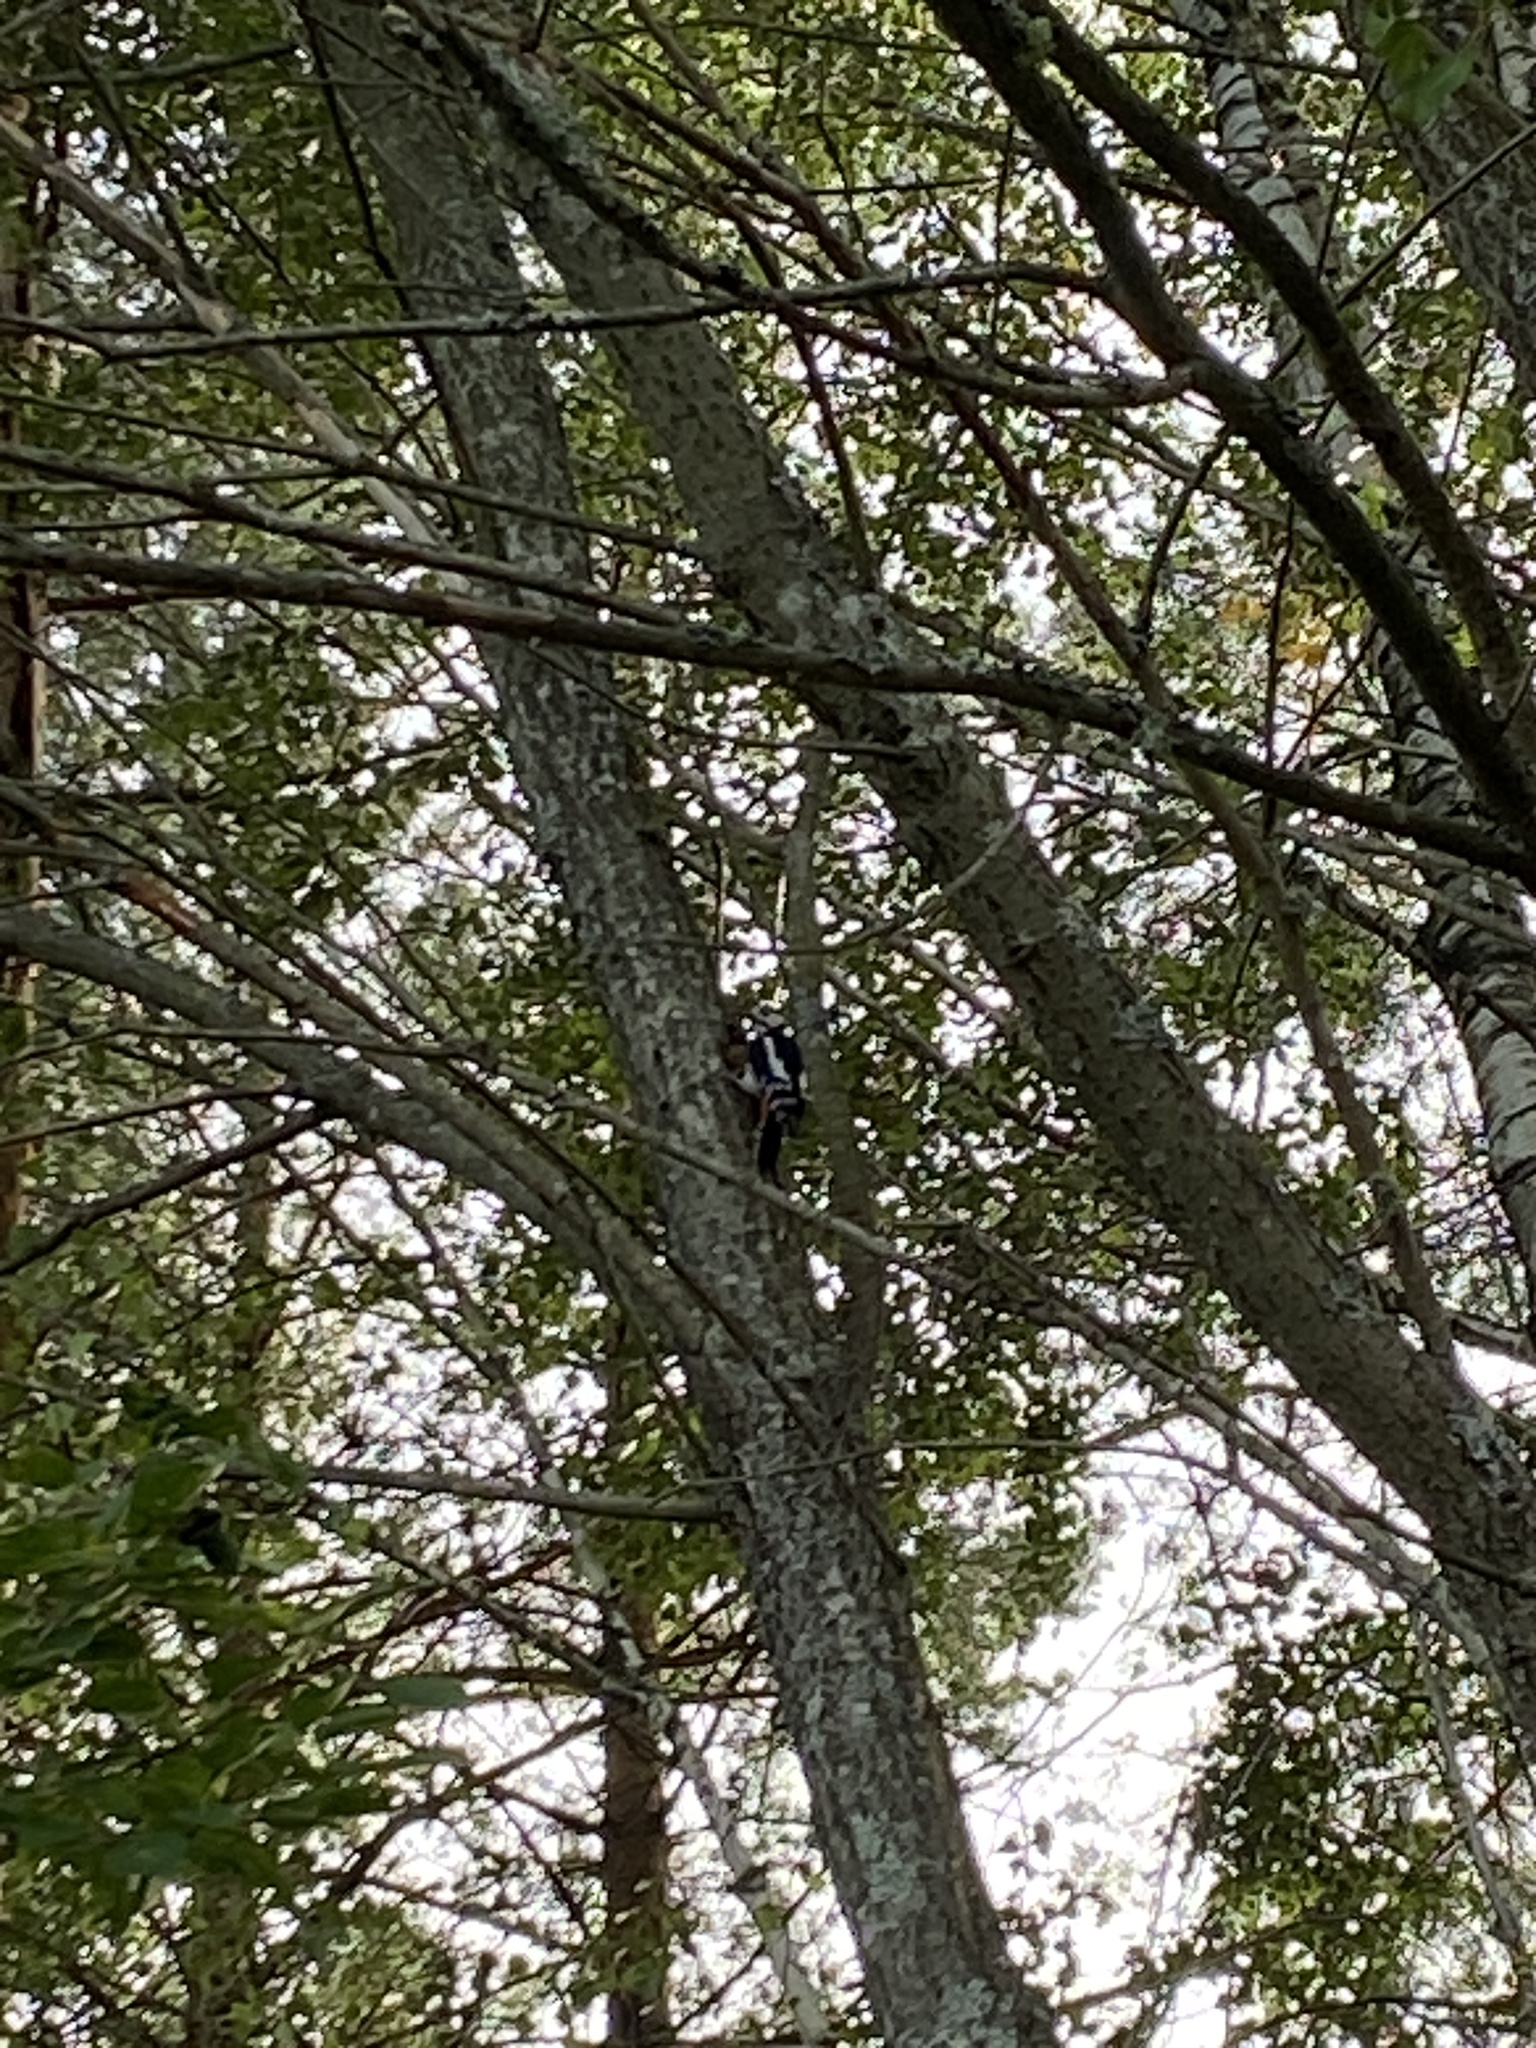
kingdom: Animalia
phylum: Chordata
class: Aves
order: Piciformes
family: Picidae
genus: Dendrocopos
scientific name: Dendrocopos major
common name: Great spotted woodpecker
